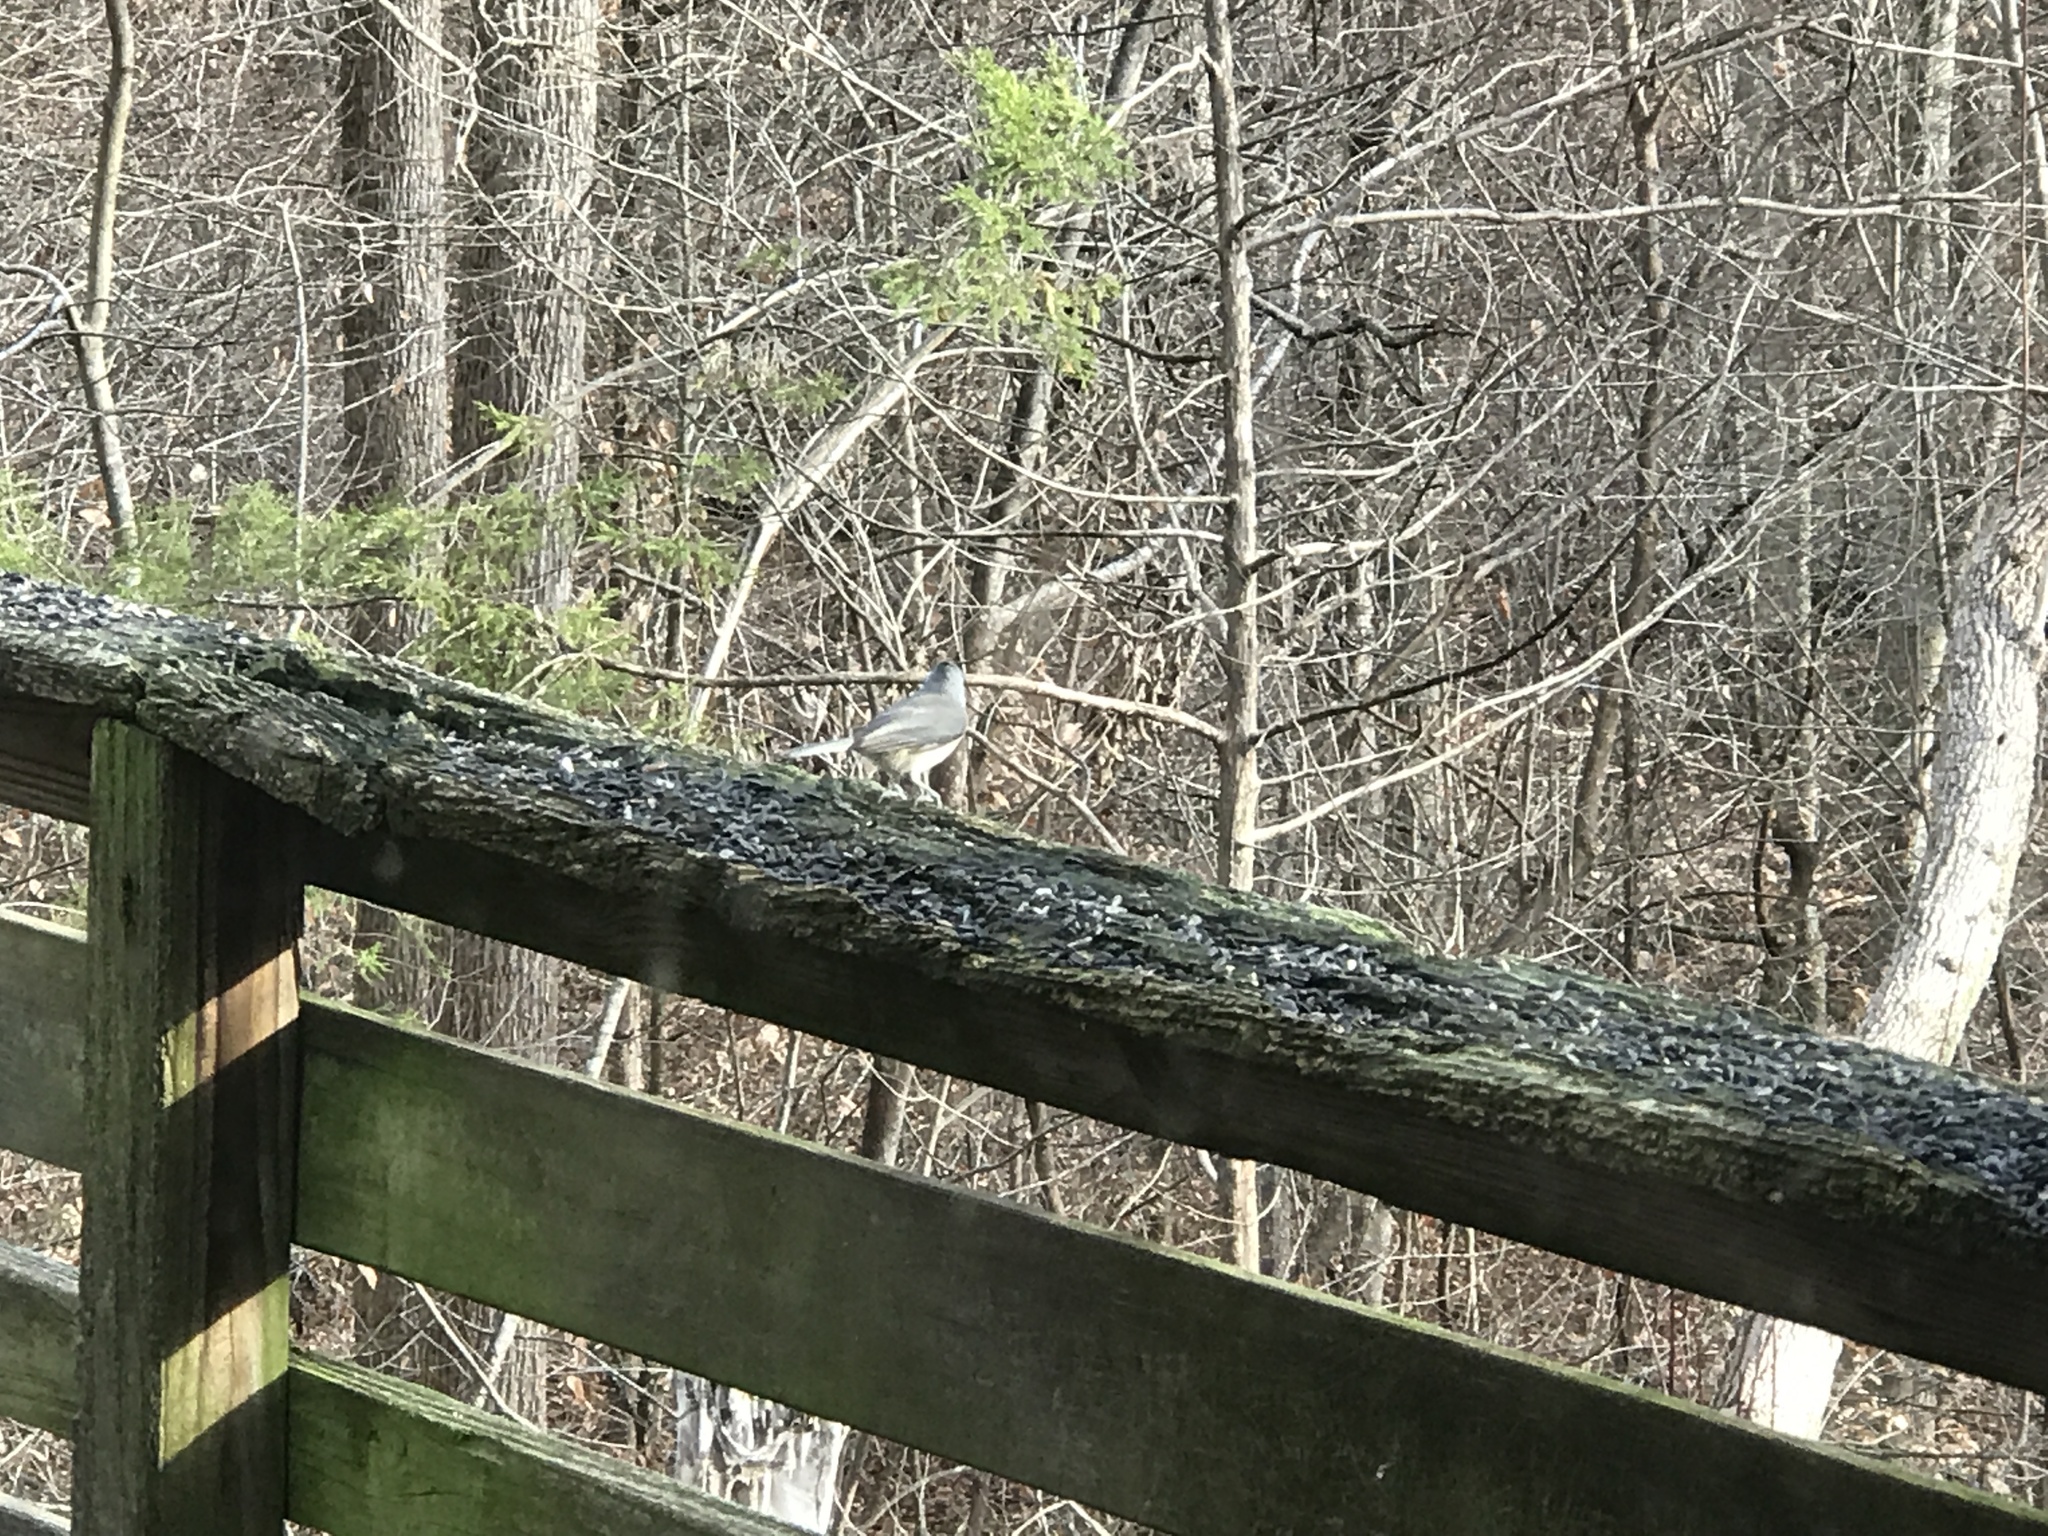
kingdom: Animalia
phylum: Chordata
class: Aves
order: Passeriformes
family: Paridae
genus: Baeolophus
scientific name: Baeolophus bicolor
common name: Tufted titmouse
